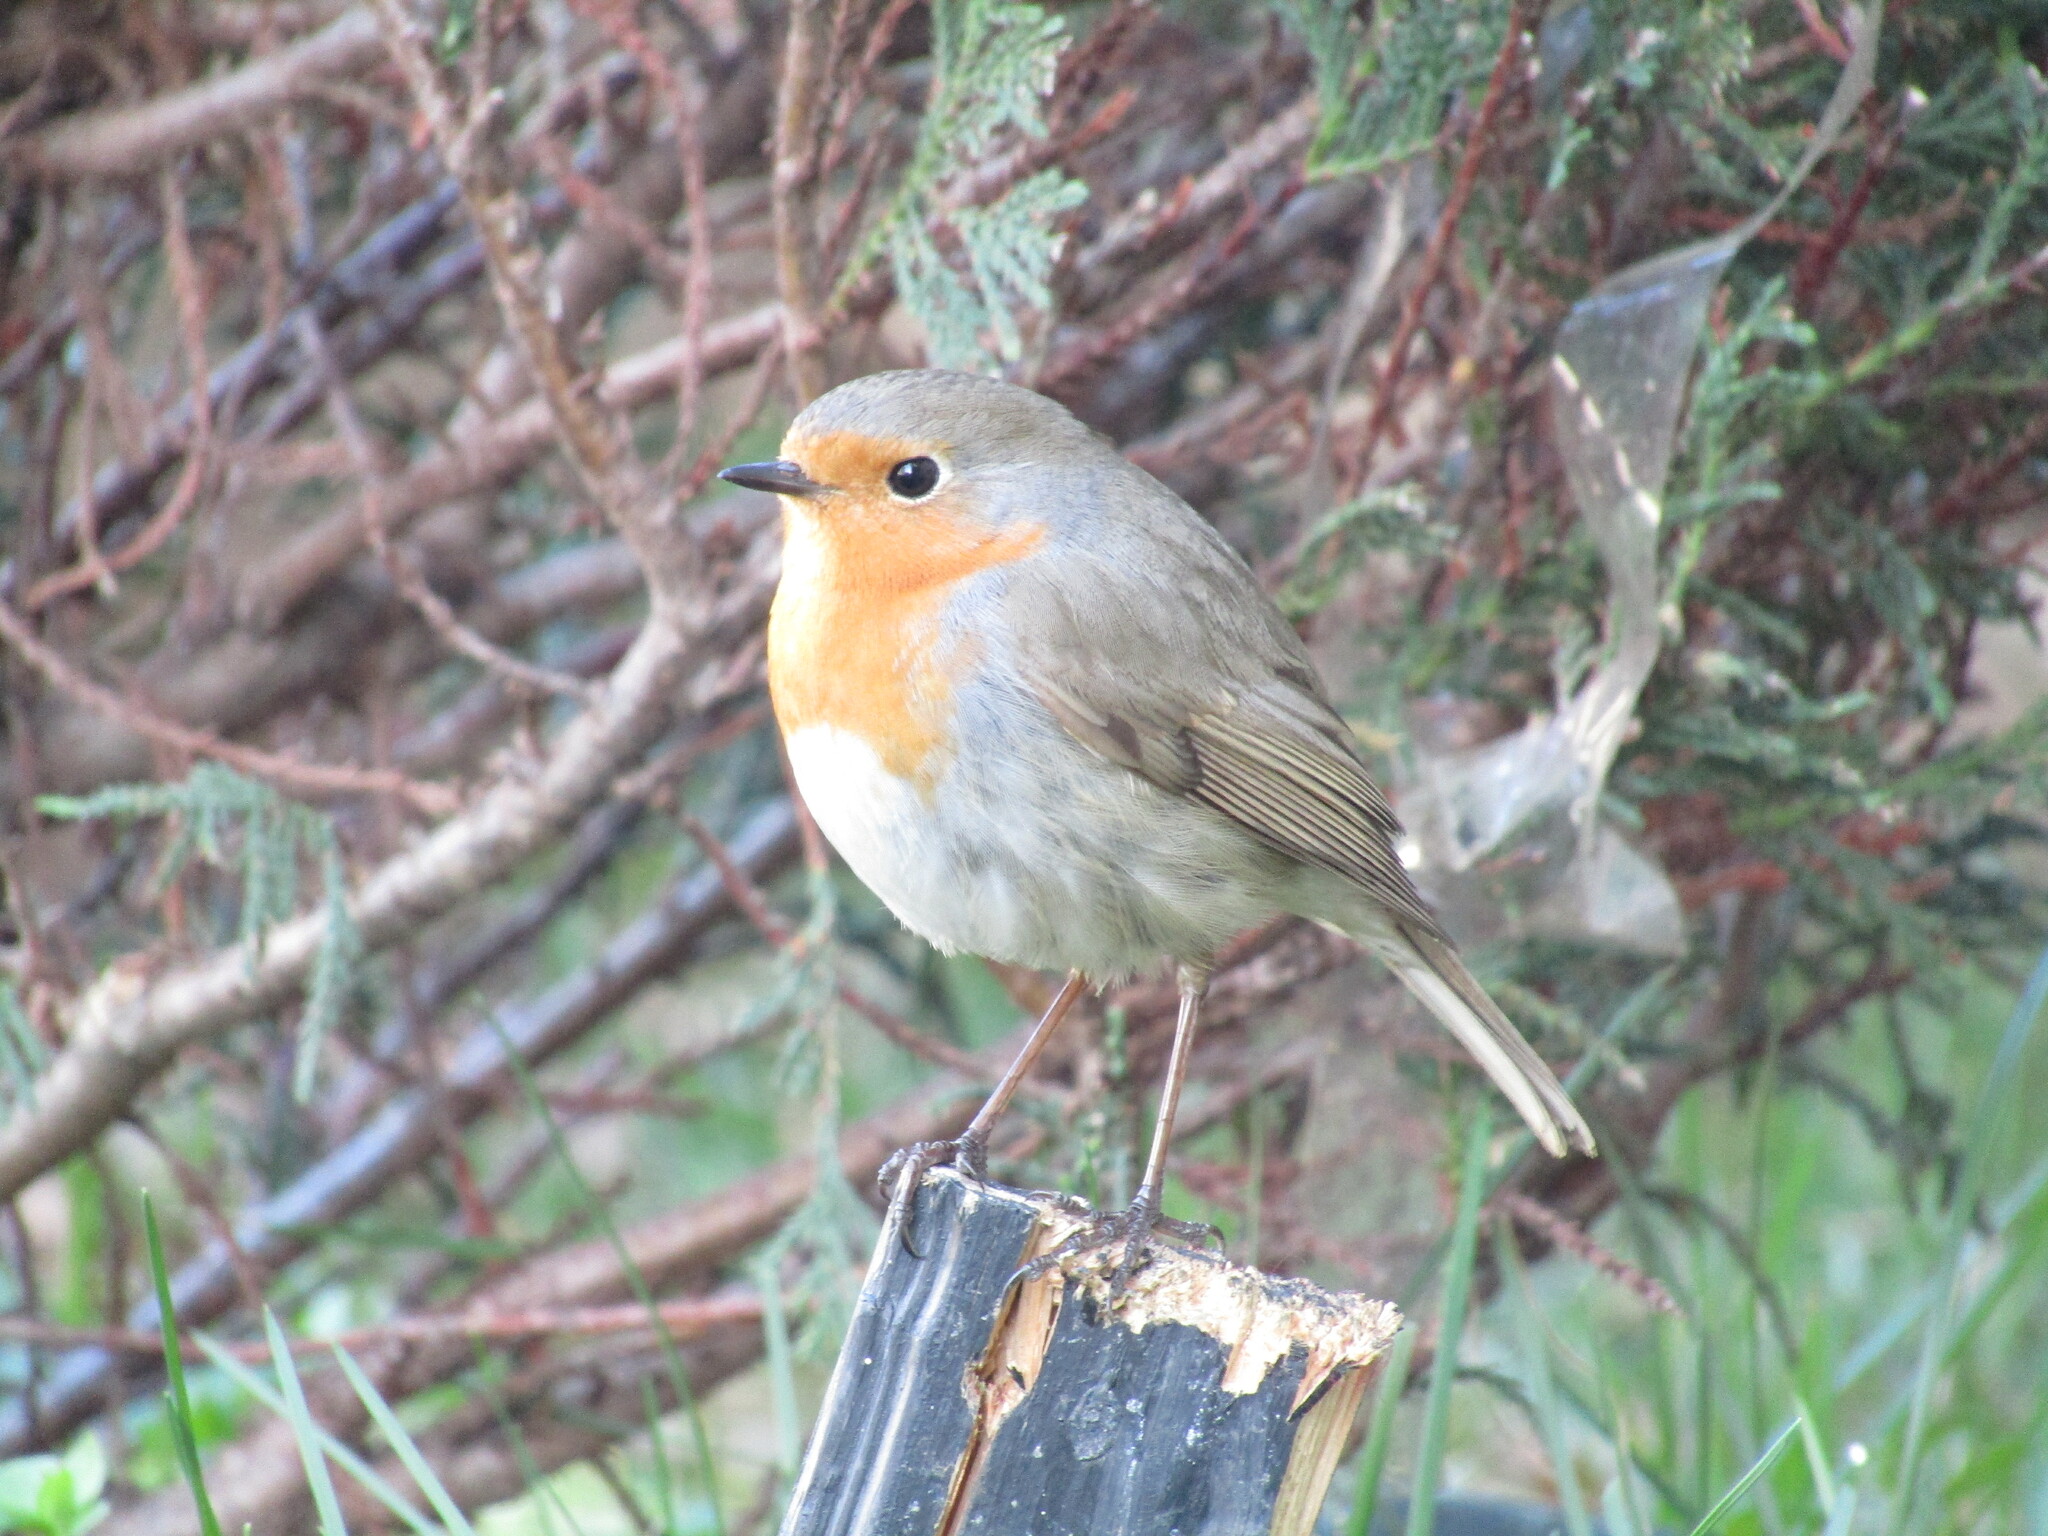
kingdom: Animalia
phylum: Chordata
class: Aves
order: Passeriformes
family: Muscicapidae
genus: Erithacus
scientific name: Erithacus rubecula
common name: European robin
